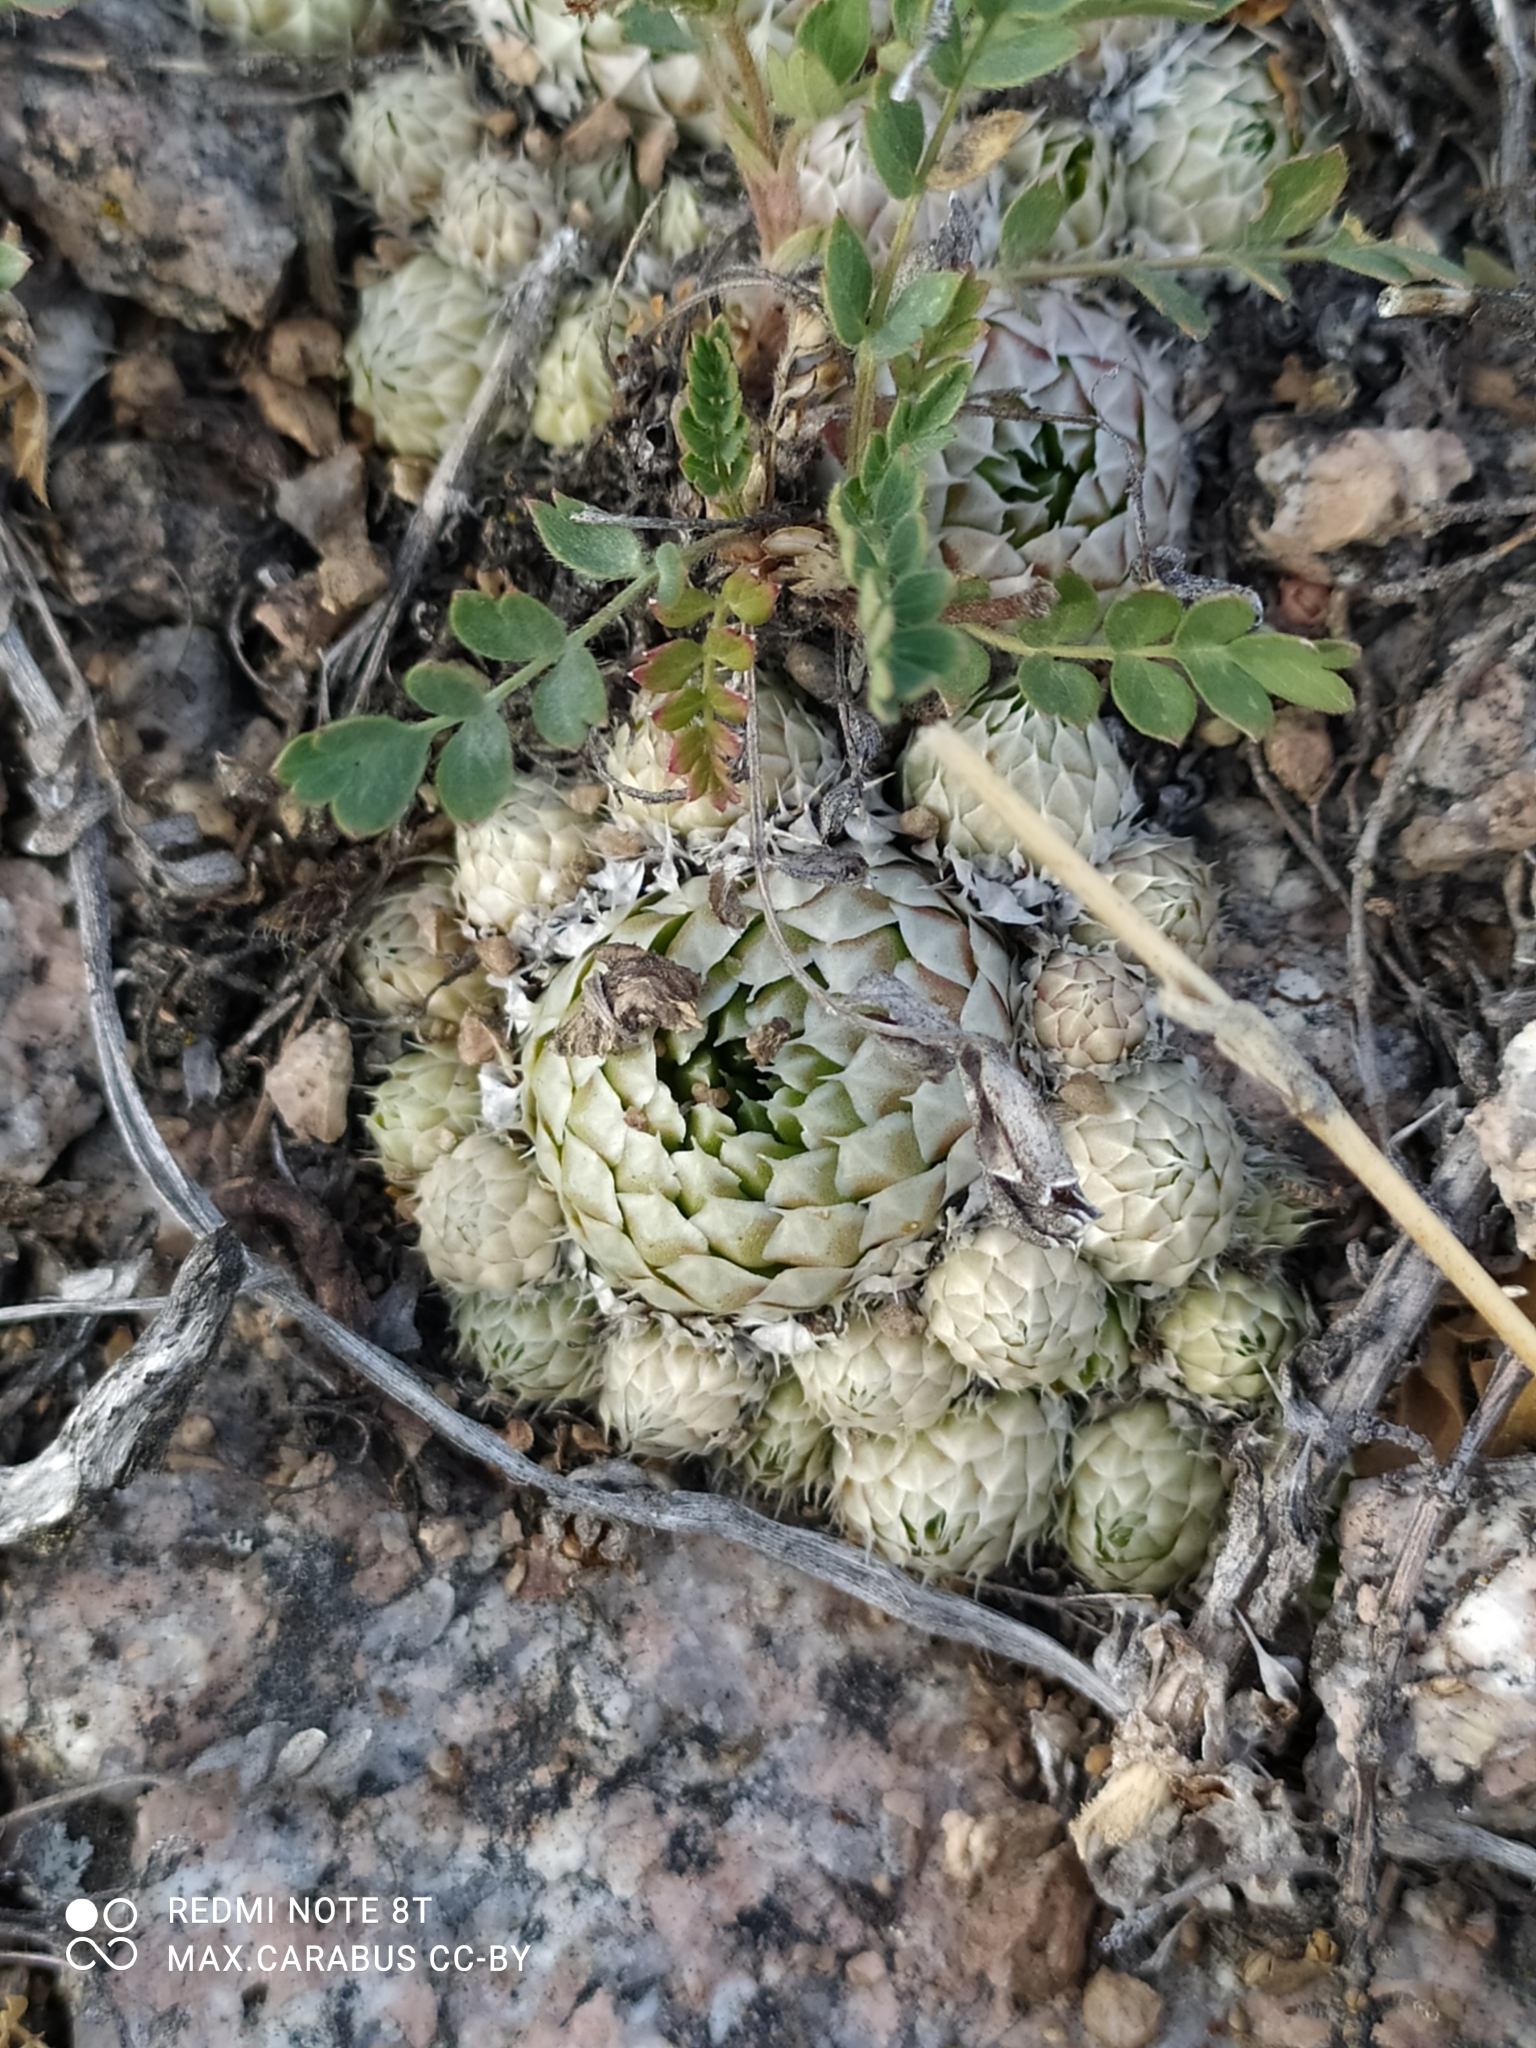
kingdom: Plantae
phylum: Tracheophyta
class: Magnoliopsida
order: Saxifragales
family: Crassulaceae
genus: Orostachys
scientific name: Orostachys spinosa
